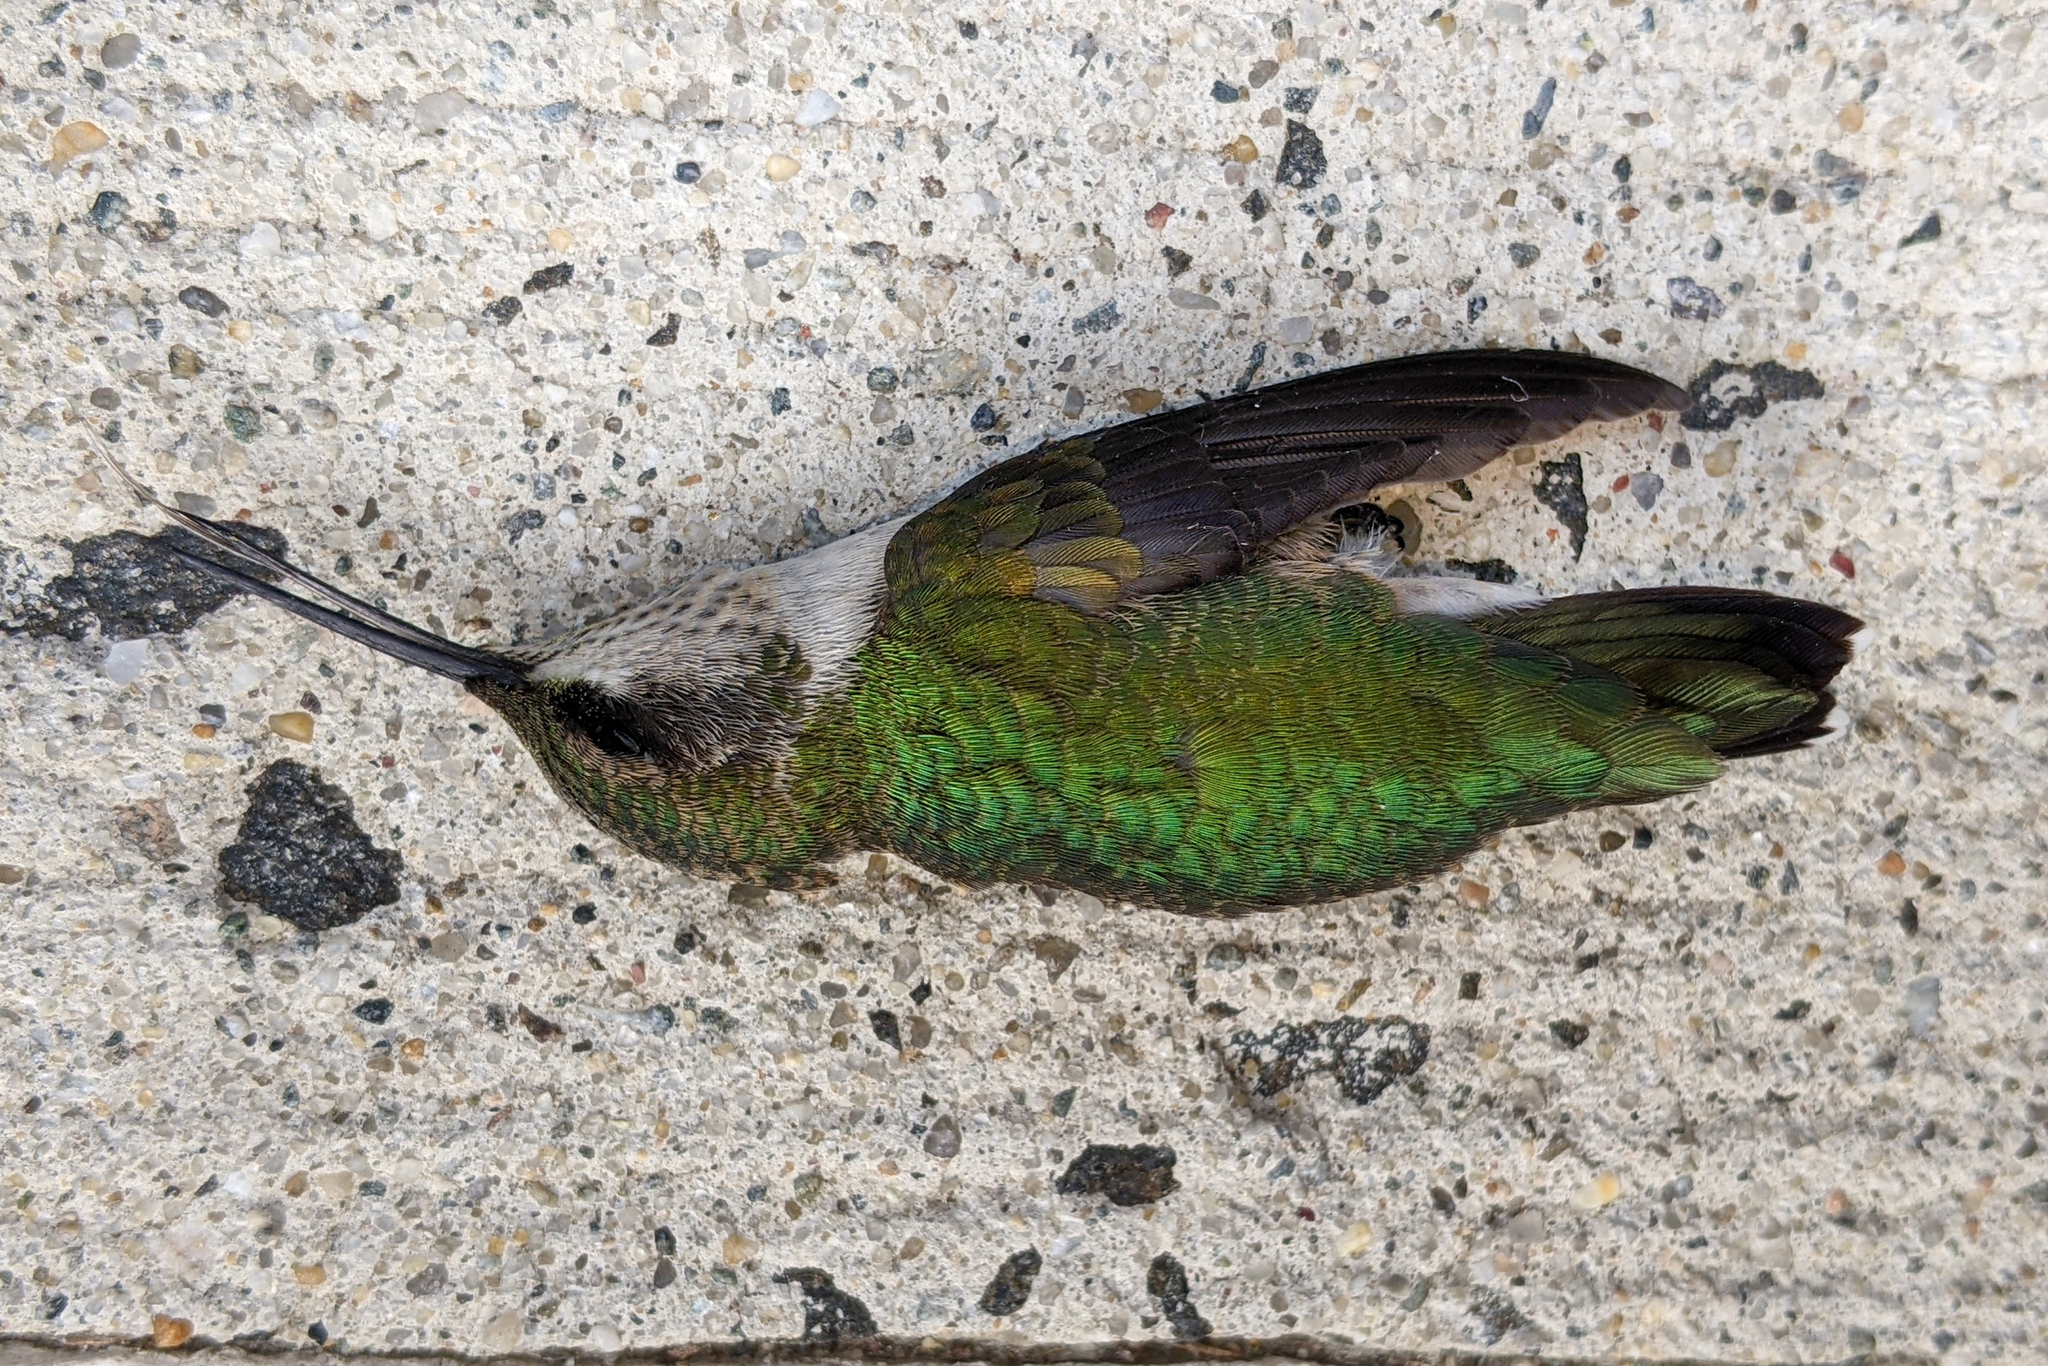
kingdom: Animalia
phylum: Chordata
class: Aves
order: Apodiformes
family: Trochilidae
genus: Archilochus
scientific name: Archilochus colubris
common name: Ruby-throated hummingbird
